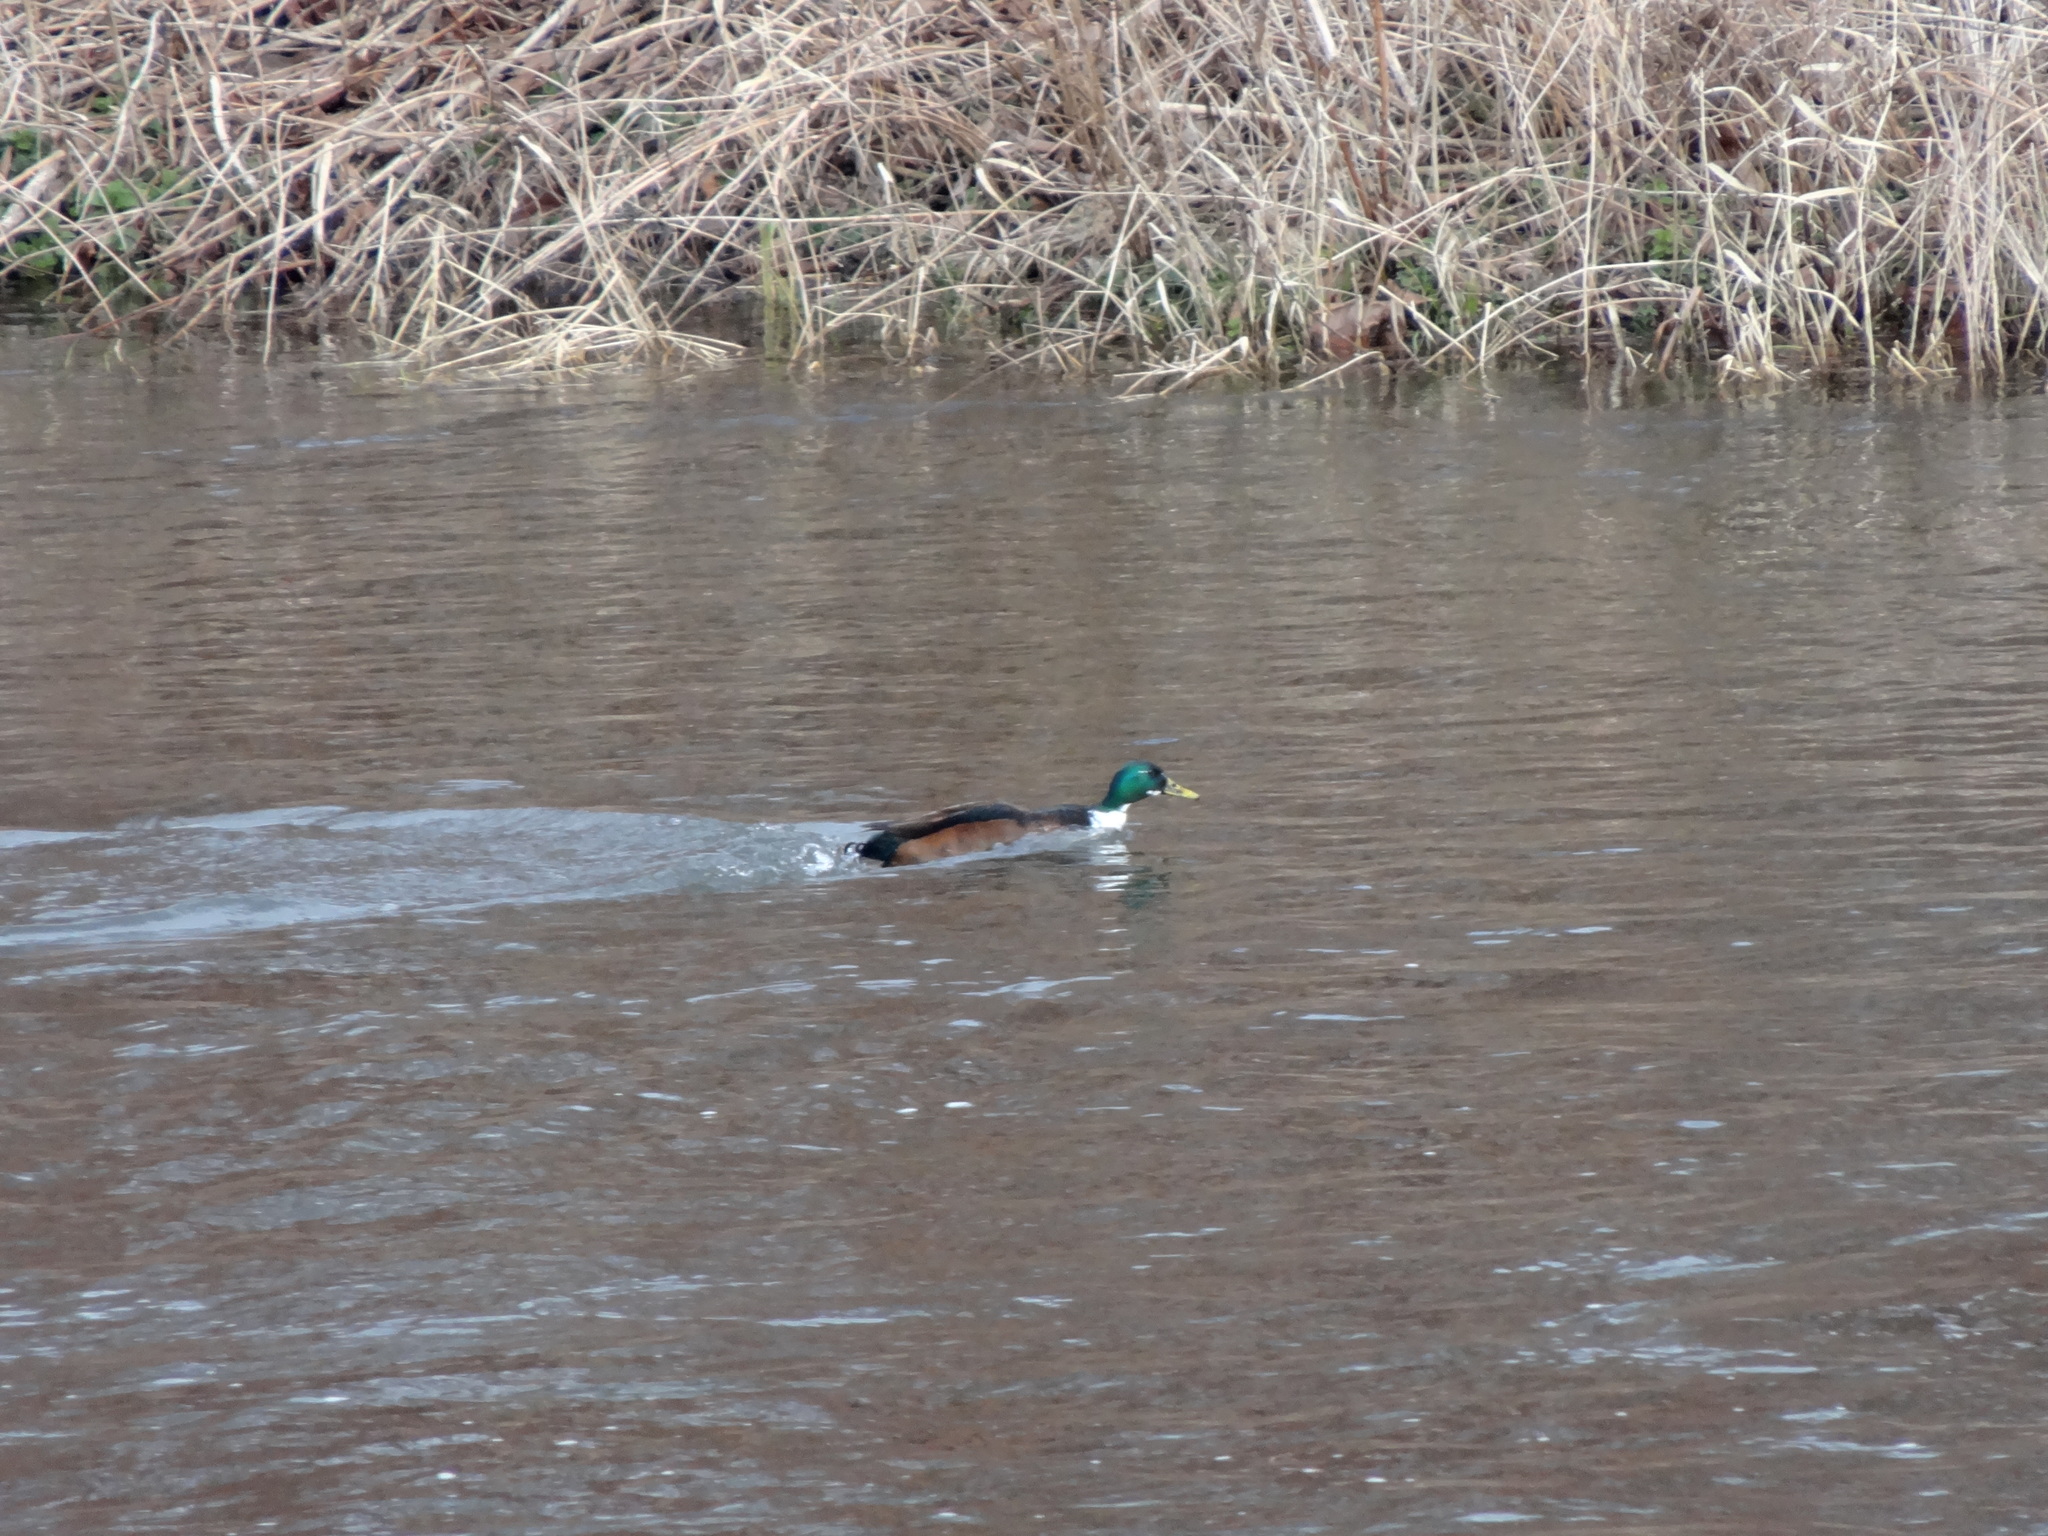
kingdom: Animalia
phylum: Chordata
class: Aves
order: Anseriformes
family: Anatidae
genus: Anas
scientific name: Anas platyrhynchos
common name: Mallard
